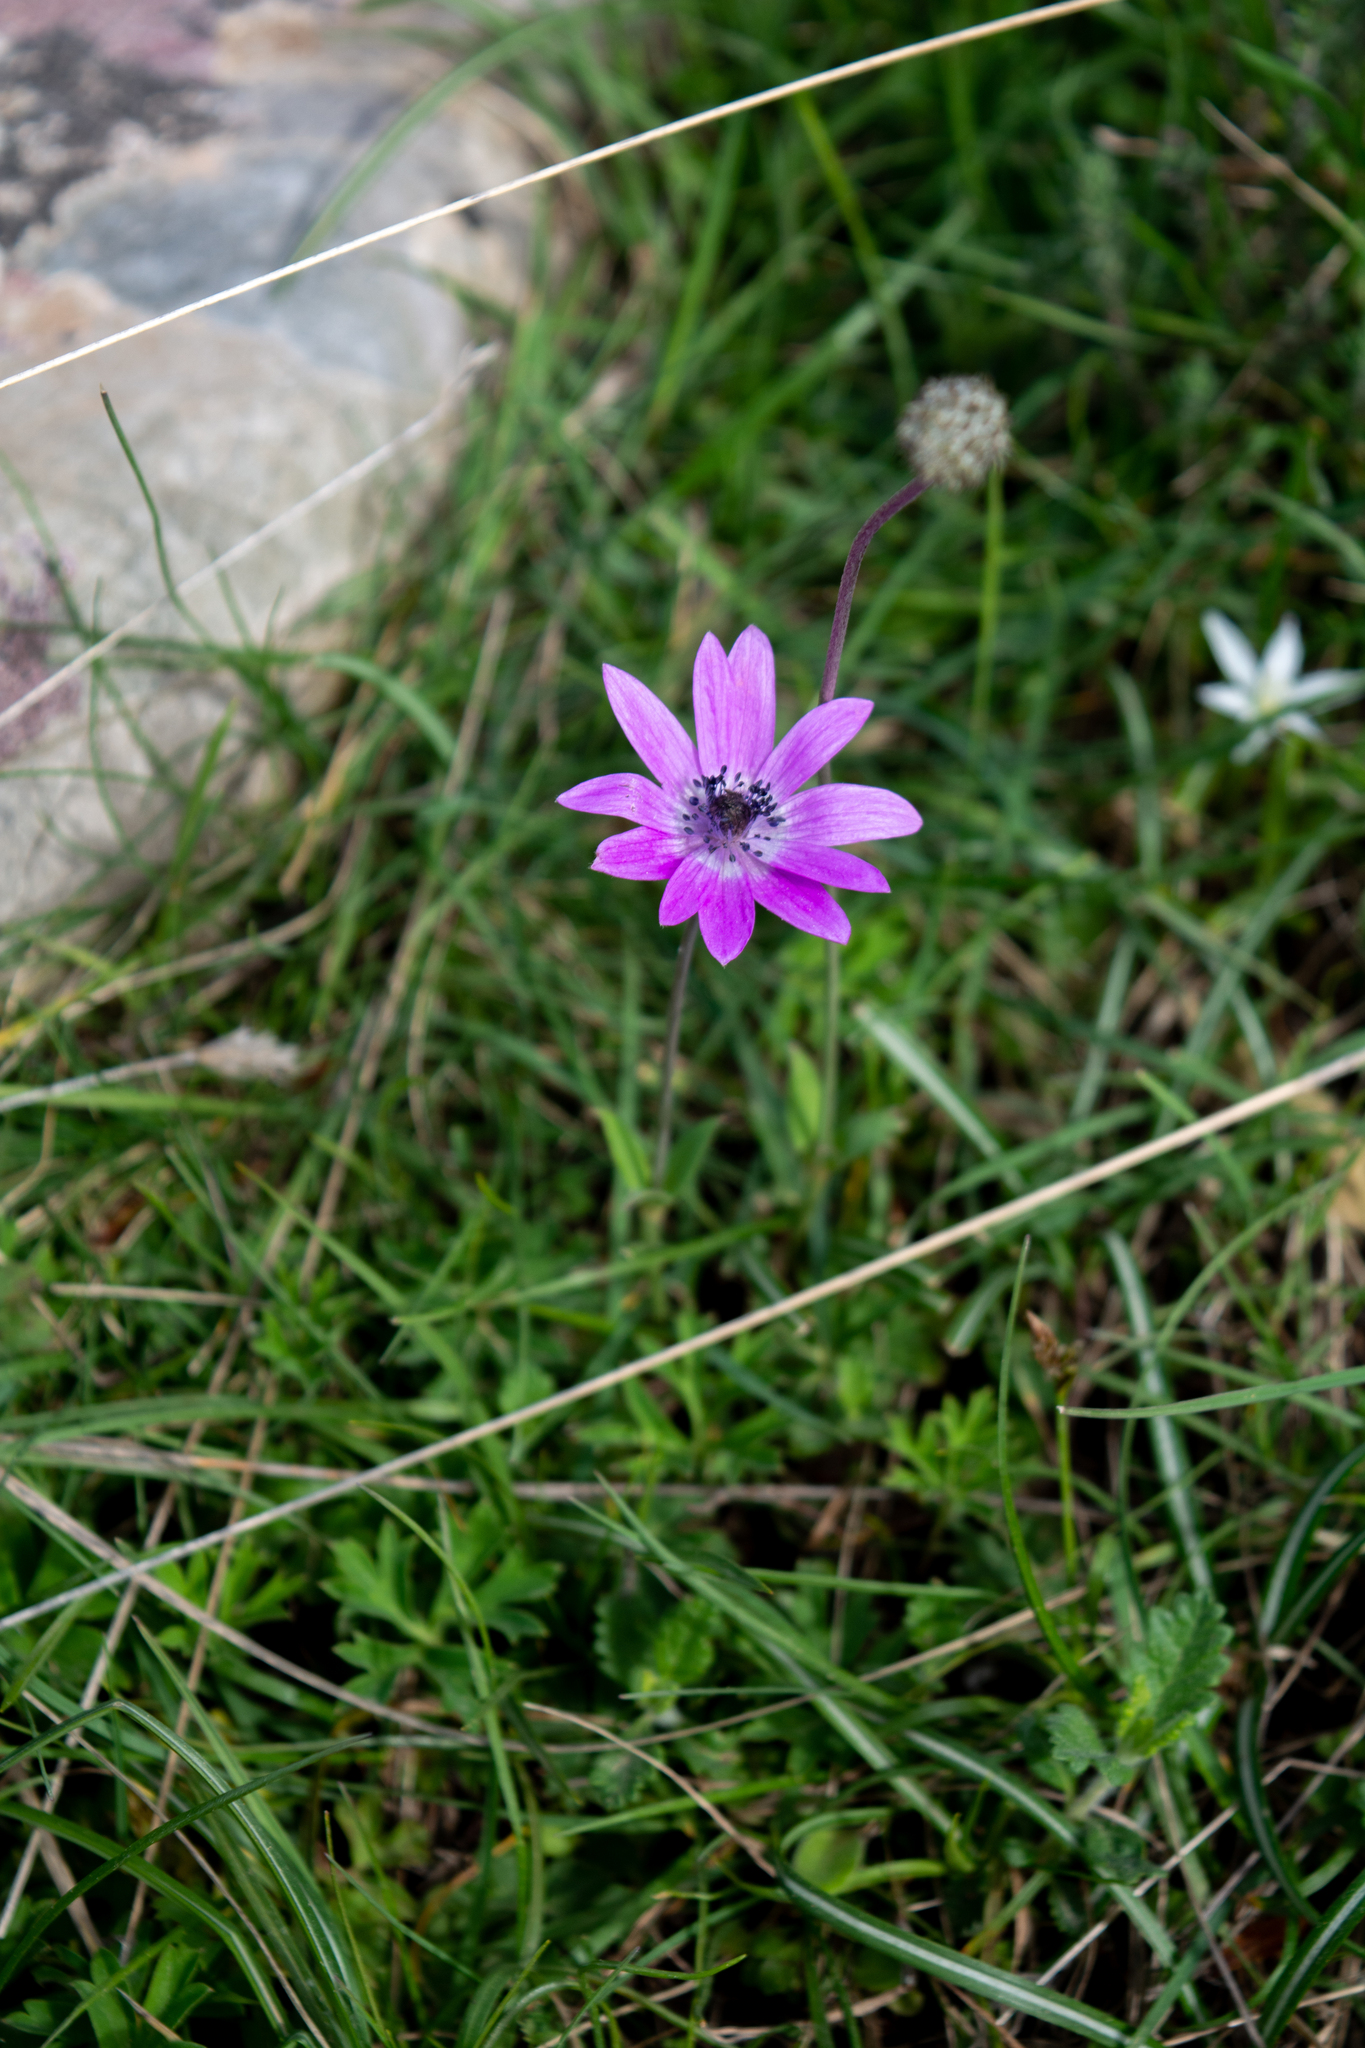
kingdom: Plantae
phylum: Tracheophyta
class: Magnoliopsida
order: Ranunculales
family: Ranunculaceae
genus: Anemone
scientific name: Anemone hortensis
